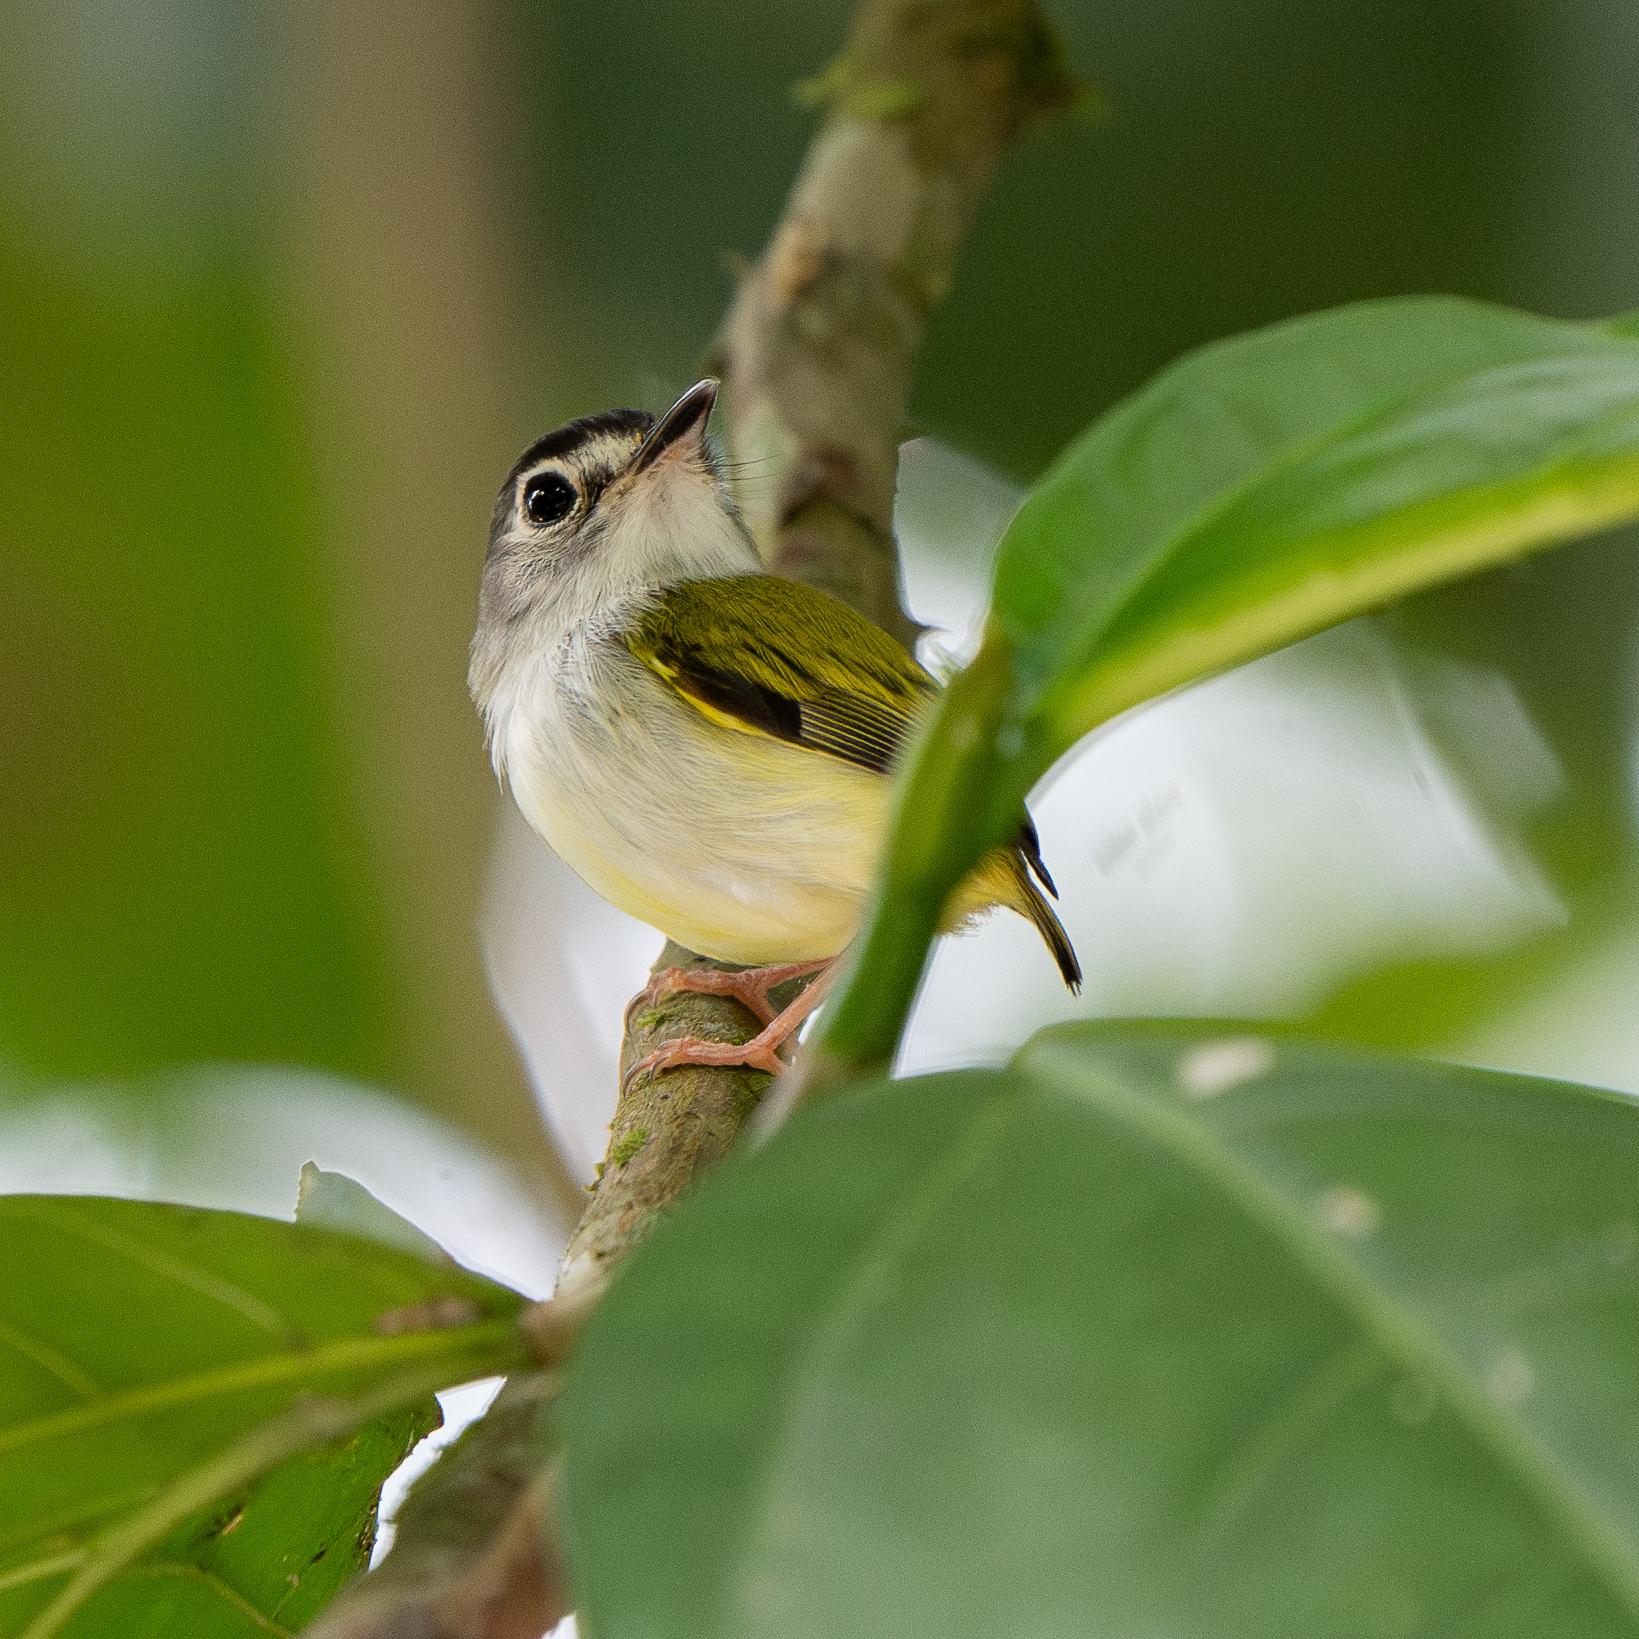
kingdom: Animalia
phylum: Chordata
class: Aves
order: Passeriformes
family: Tyrannidae
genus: Myiornis
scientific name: Myiornis atricapillus
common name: Black-capped pygmy-tyrant
